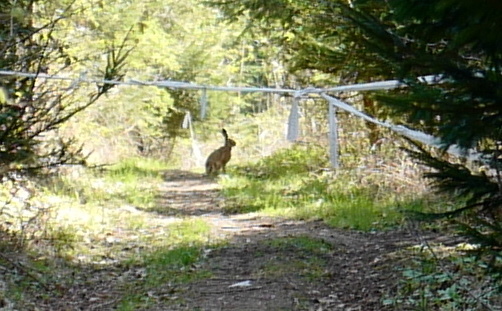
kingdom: Animalia
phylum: Chordata
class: Mammalia
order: Lagomorpha
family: Leporidae
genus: Lepus
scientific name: Lepus europaeus
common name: European hare
